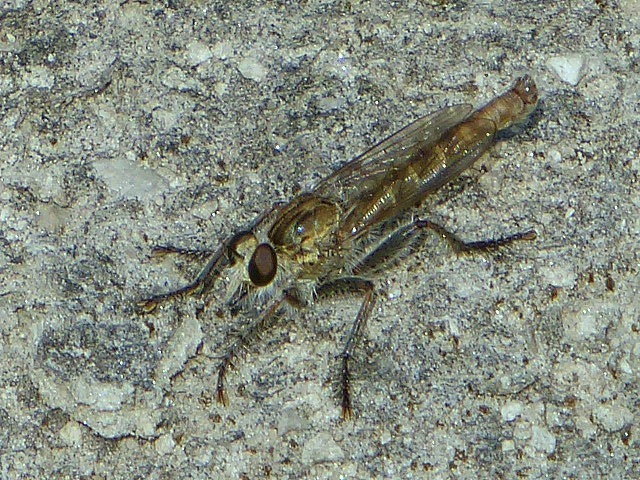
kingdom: Animalia
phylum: Arthropoda
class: Insecta
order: Diptera
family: Asilidae
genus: Proctacanthella
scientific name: Proctacanthella cacopiloga
